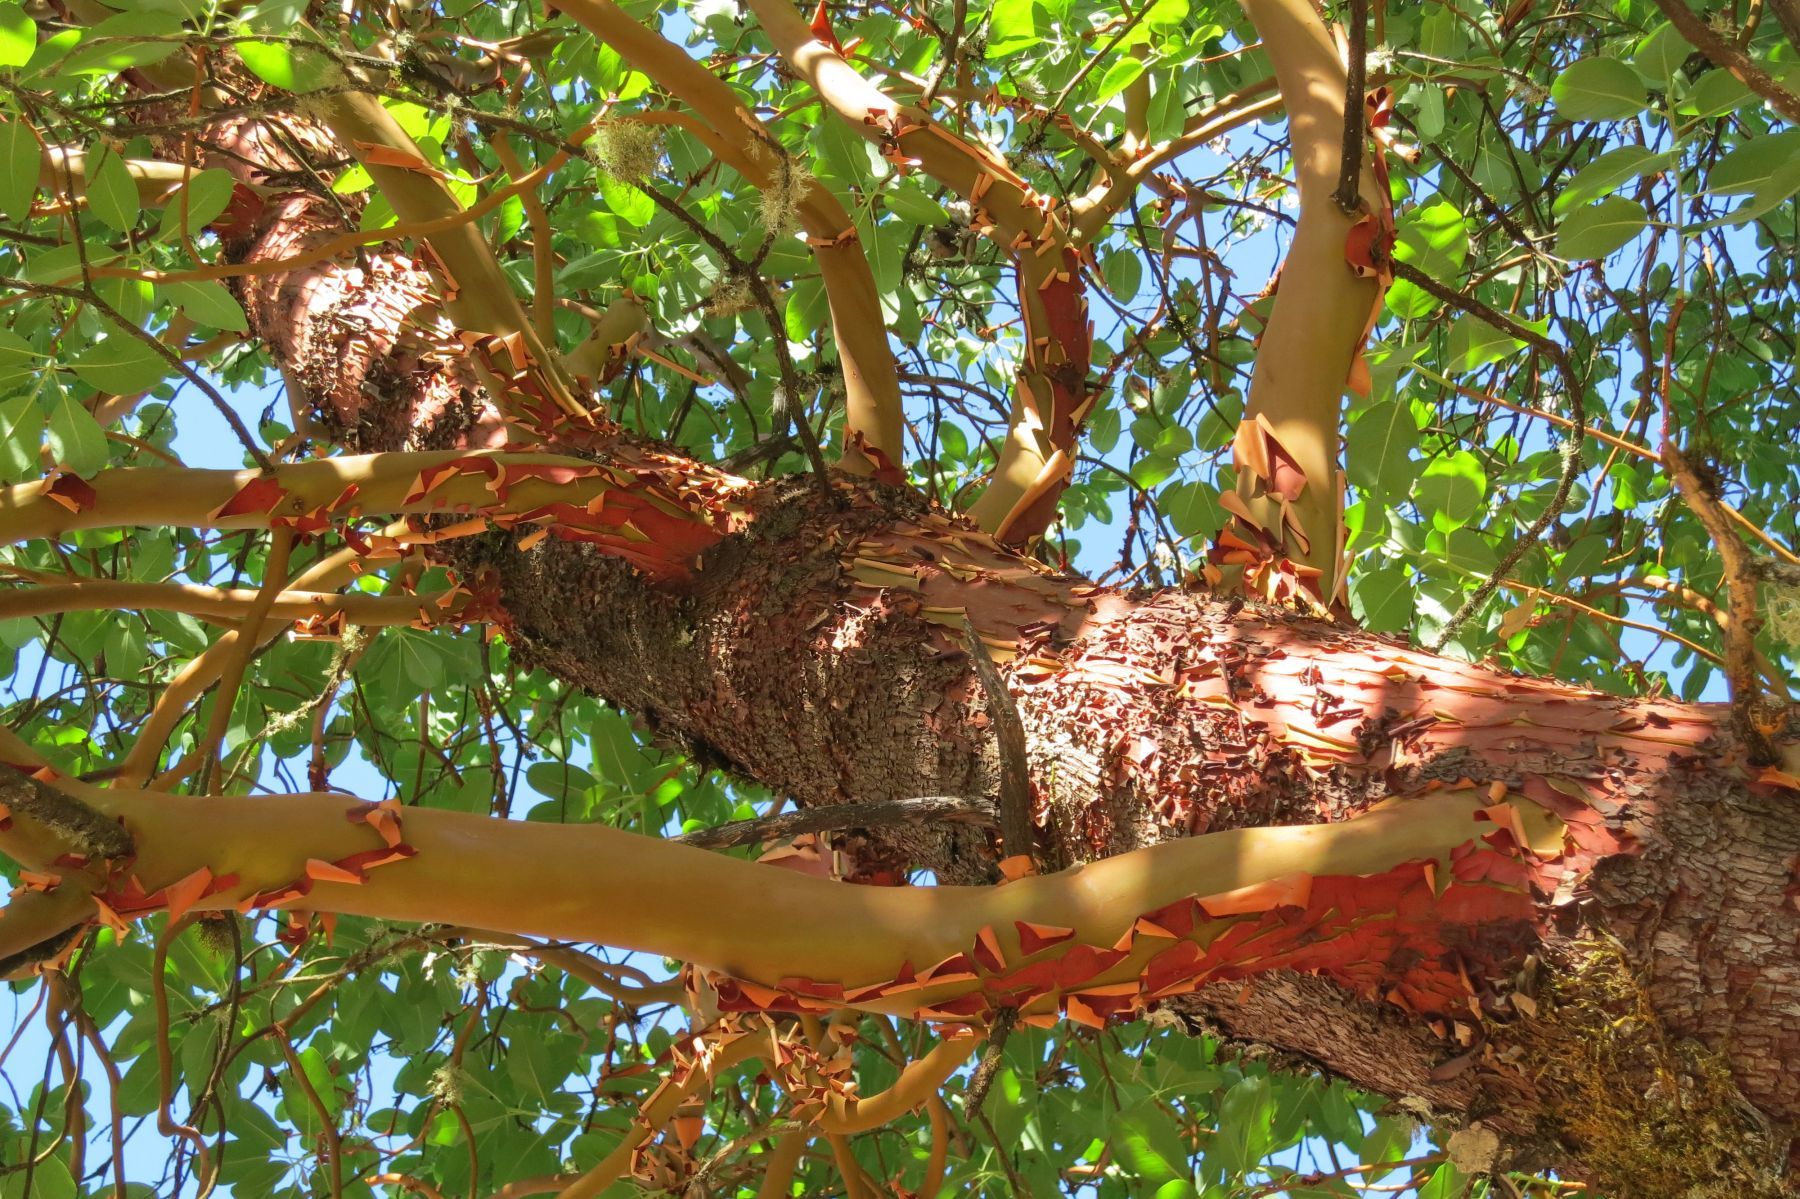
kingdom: Plantae
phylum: Tracheophyta
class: Magnoliopsida
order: Ericales
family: Ericaceae
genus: Arbutus
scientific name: Arbutus menziesii
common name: Pacific madrone
